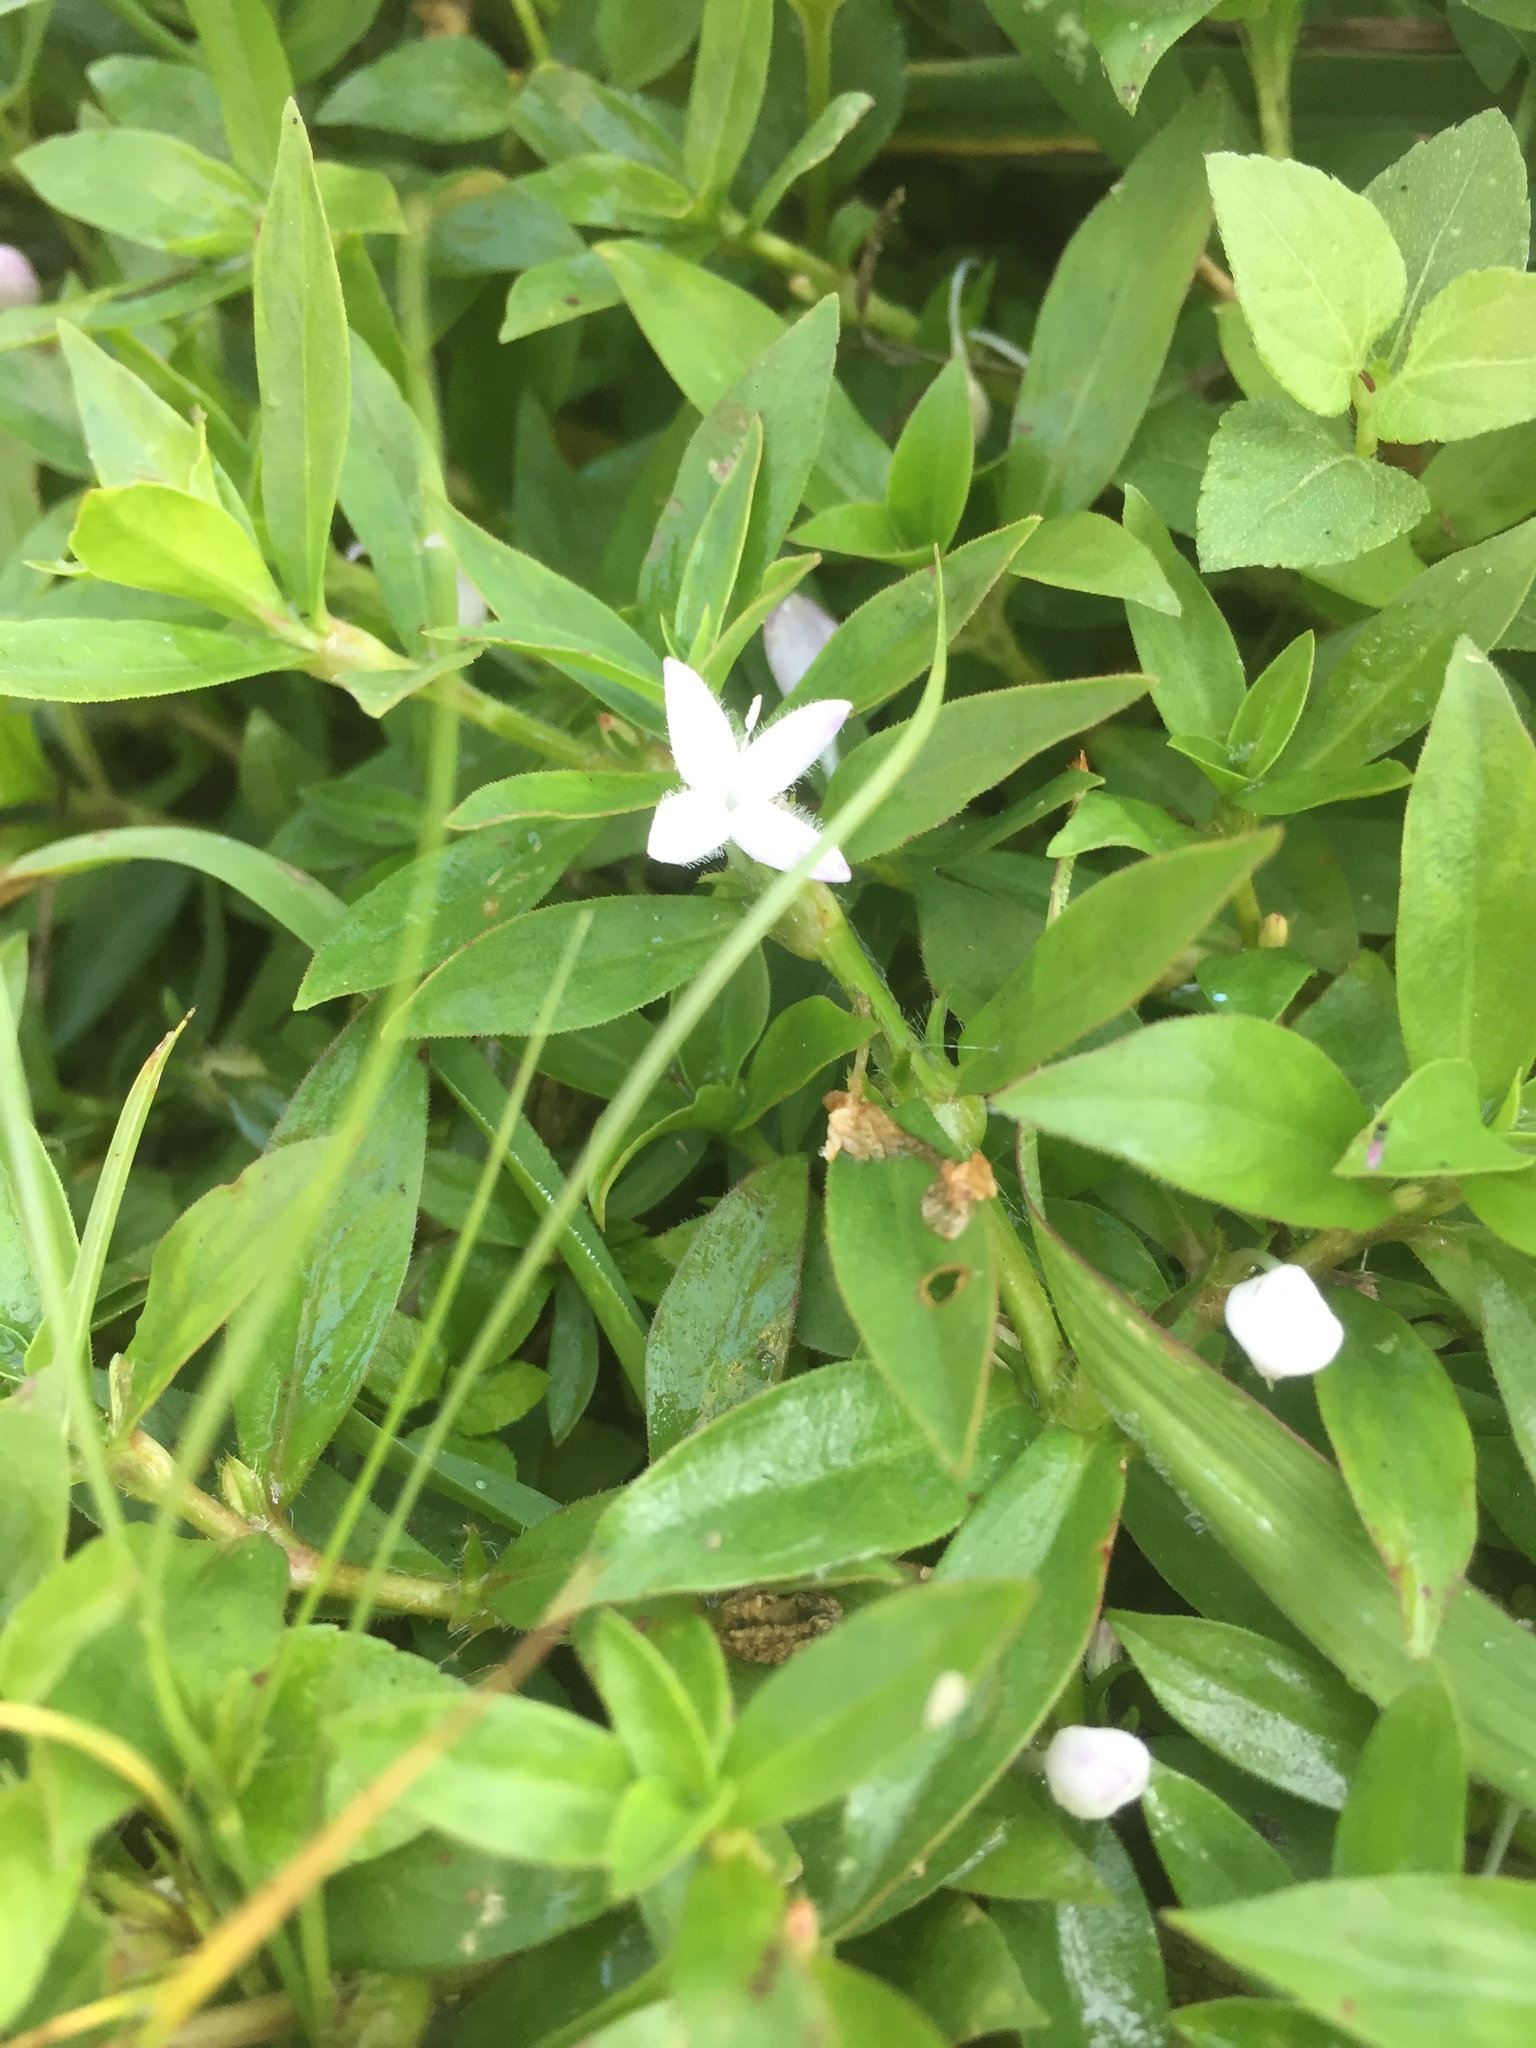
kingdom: Plantae
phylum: Tracheophyta
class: Magnoliopsida
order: Gentianales
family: Rubiaceae
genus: Diodia
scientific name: Diodia virginiana
